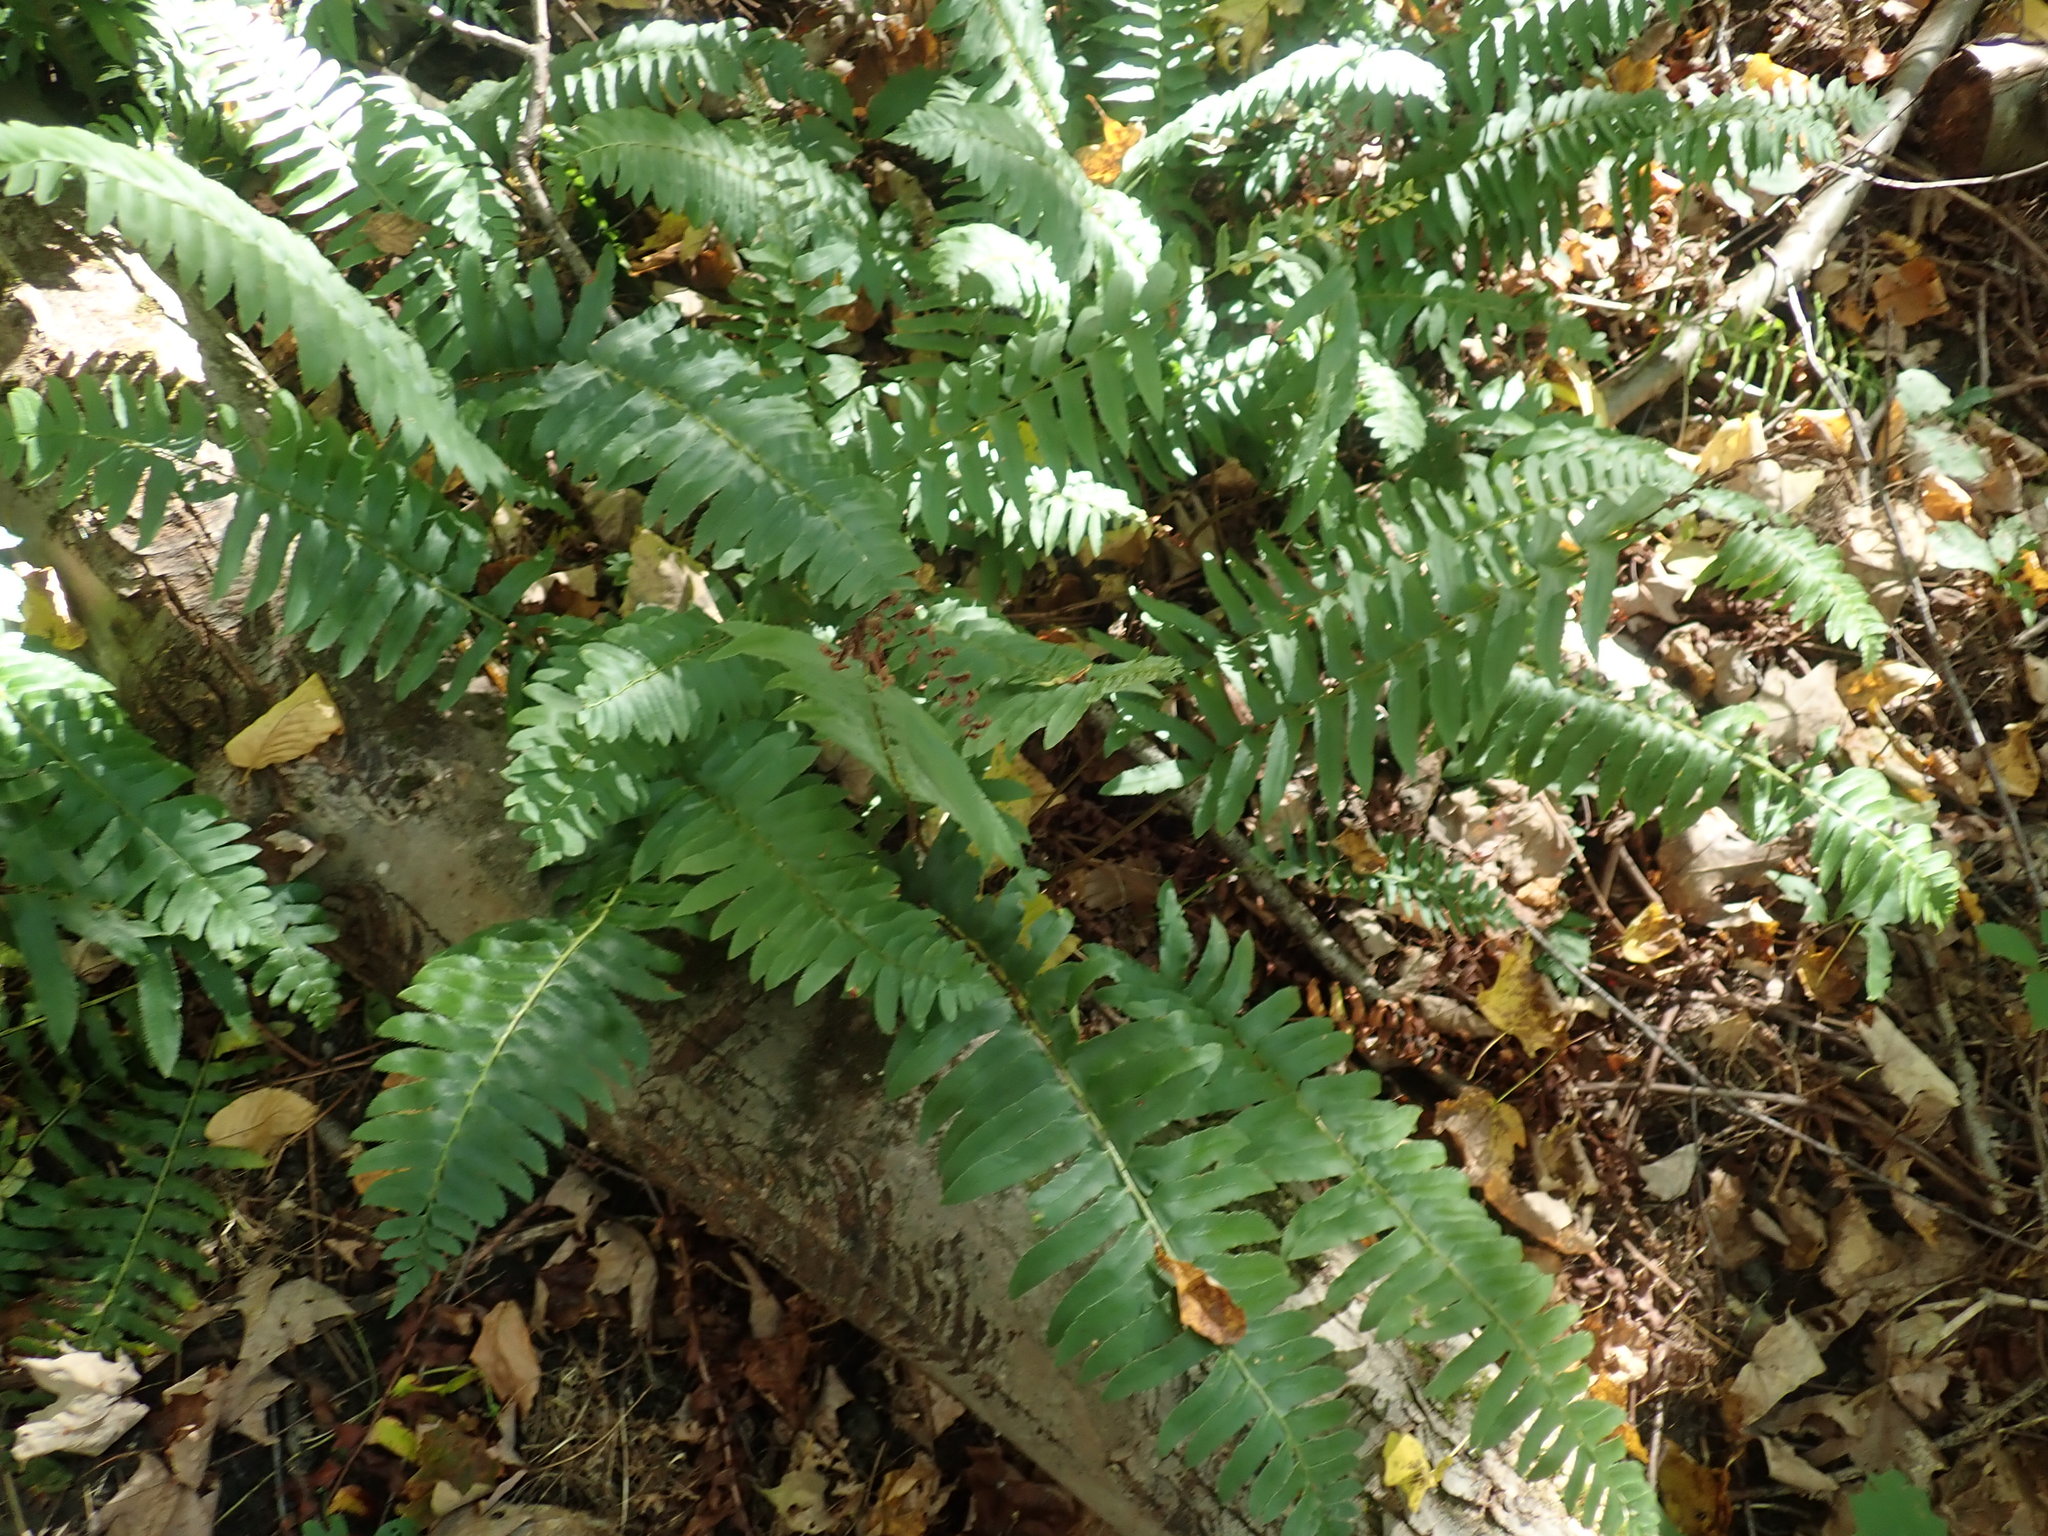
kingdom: Plantae
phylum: Tracheophyta
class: Polypodiopsida
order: Polypodiales
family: Dryopteridaceae
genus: Polystichum
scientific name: Polystichum acrostichoides
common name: Christmas fern
